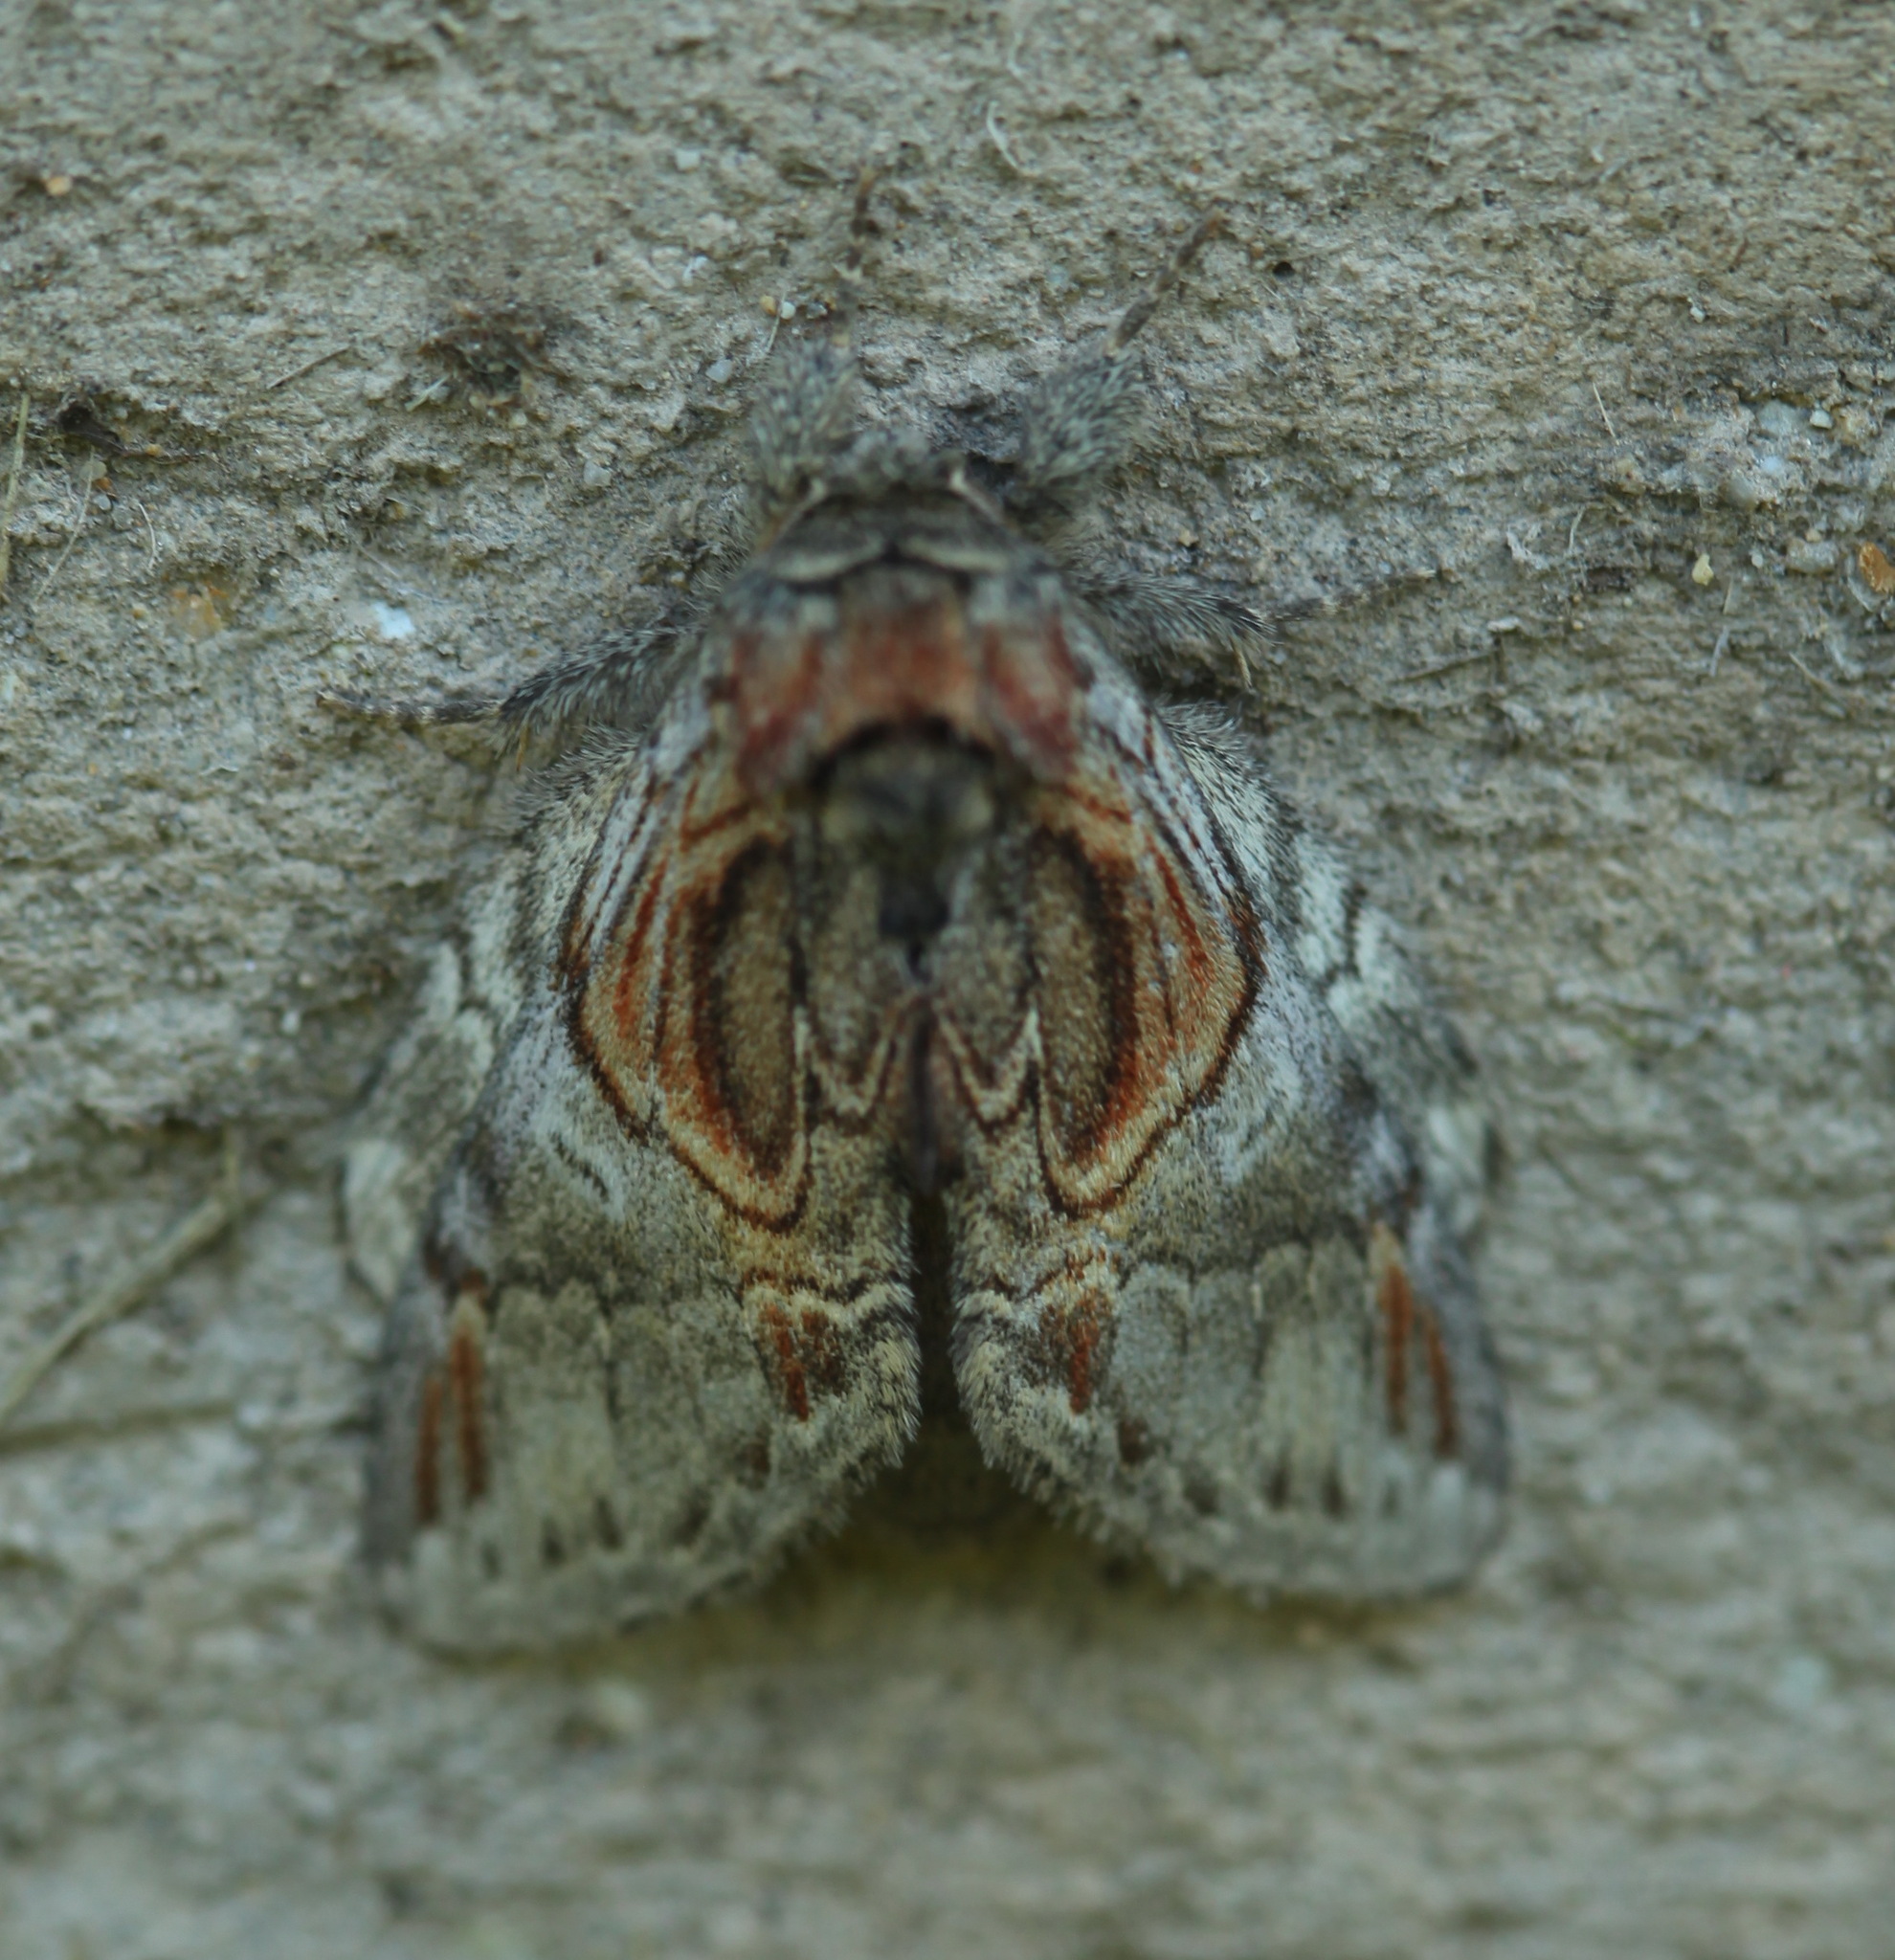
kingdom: Animalia
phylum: Arthropoda
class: Insecta
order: Lepidoptera
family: Notodontidae
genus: Peridea
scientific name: Peridea aliena
